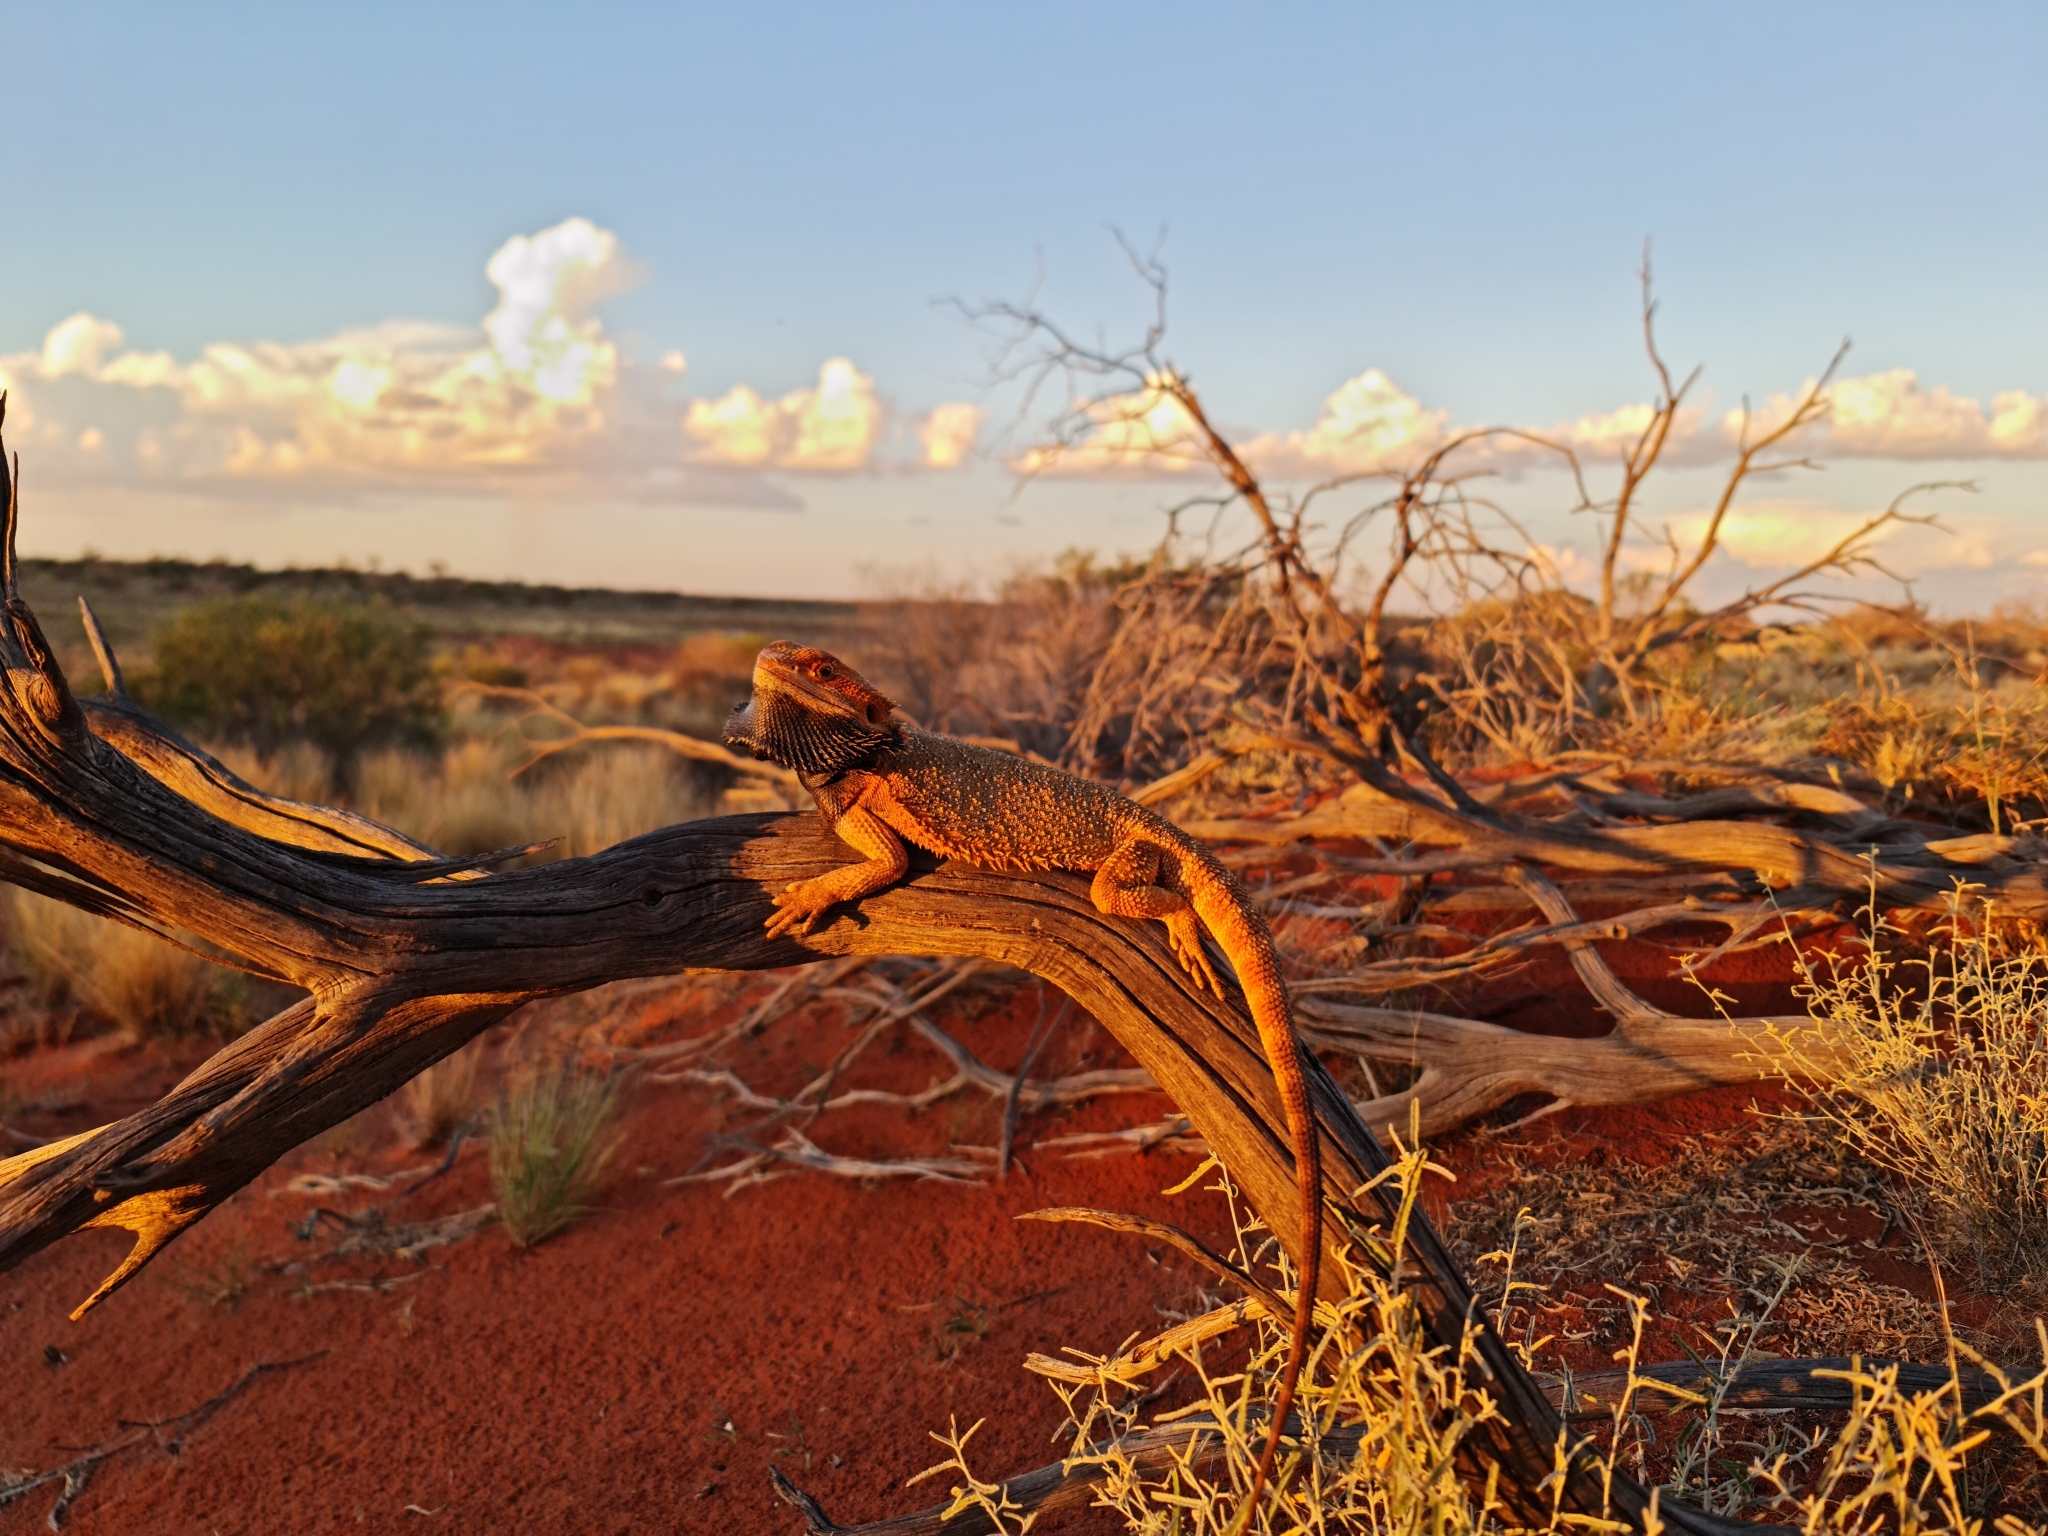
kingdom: Animalia
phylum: Chordata
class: Squamata
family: Agamidae
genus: Pogona
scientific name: Pogona vitticeps
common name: Central bearded dragon
